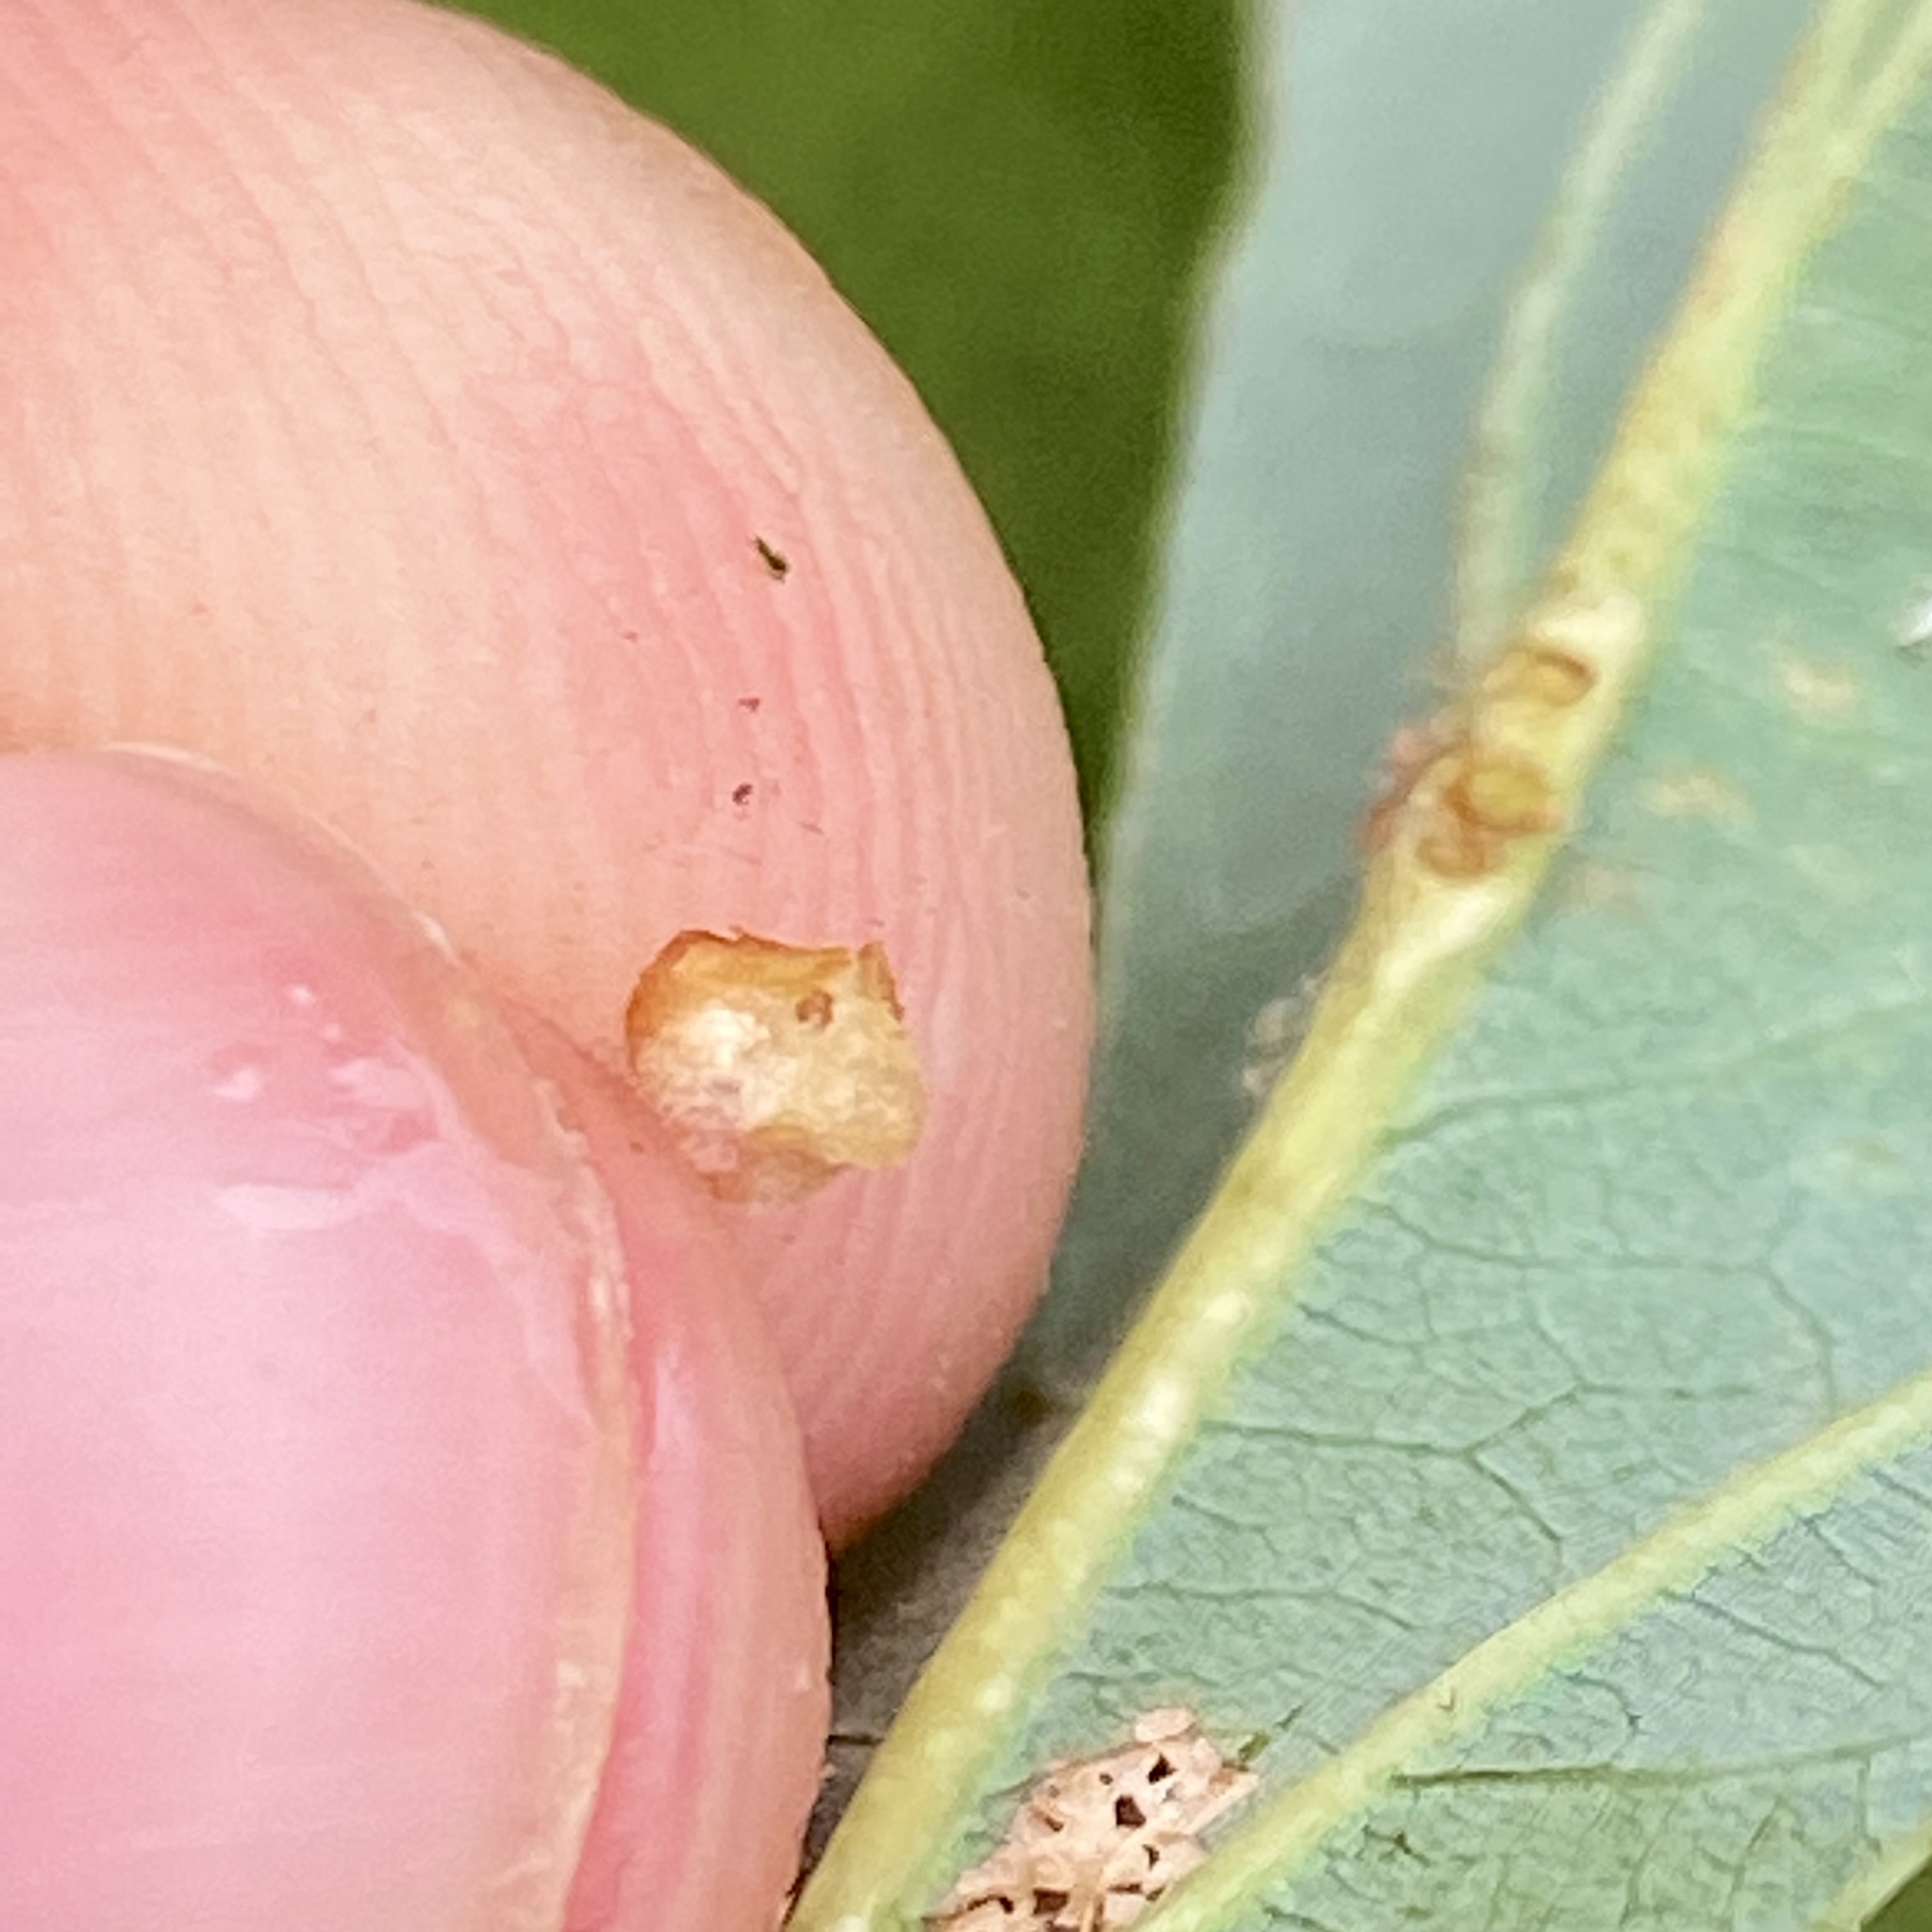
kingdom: Animalia
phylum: Arthropoda
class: Insecta
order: Hymenoptera
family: Cynipidae
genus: Andricus
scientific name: Andricus
